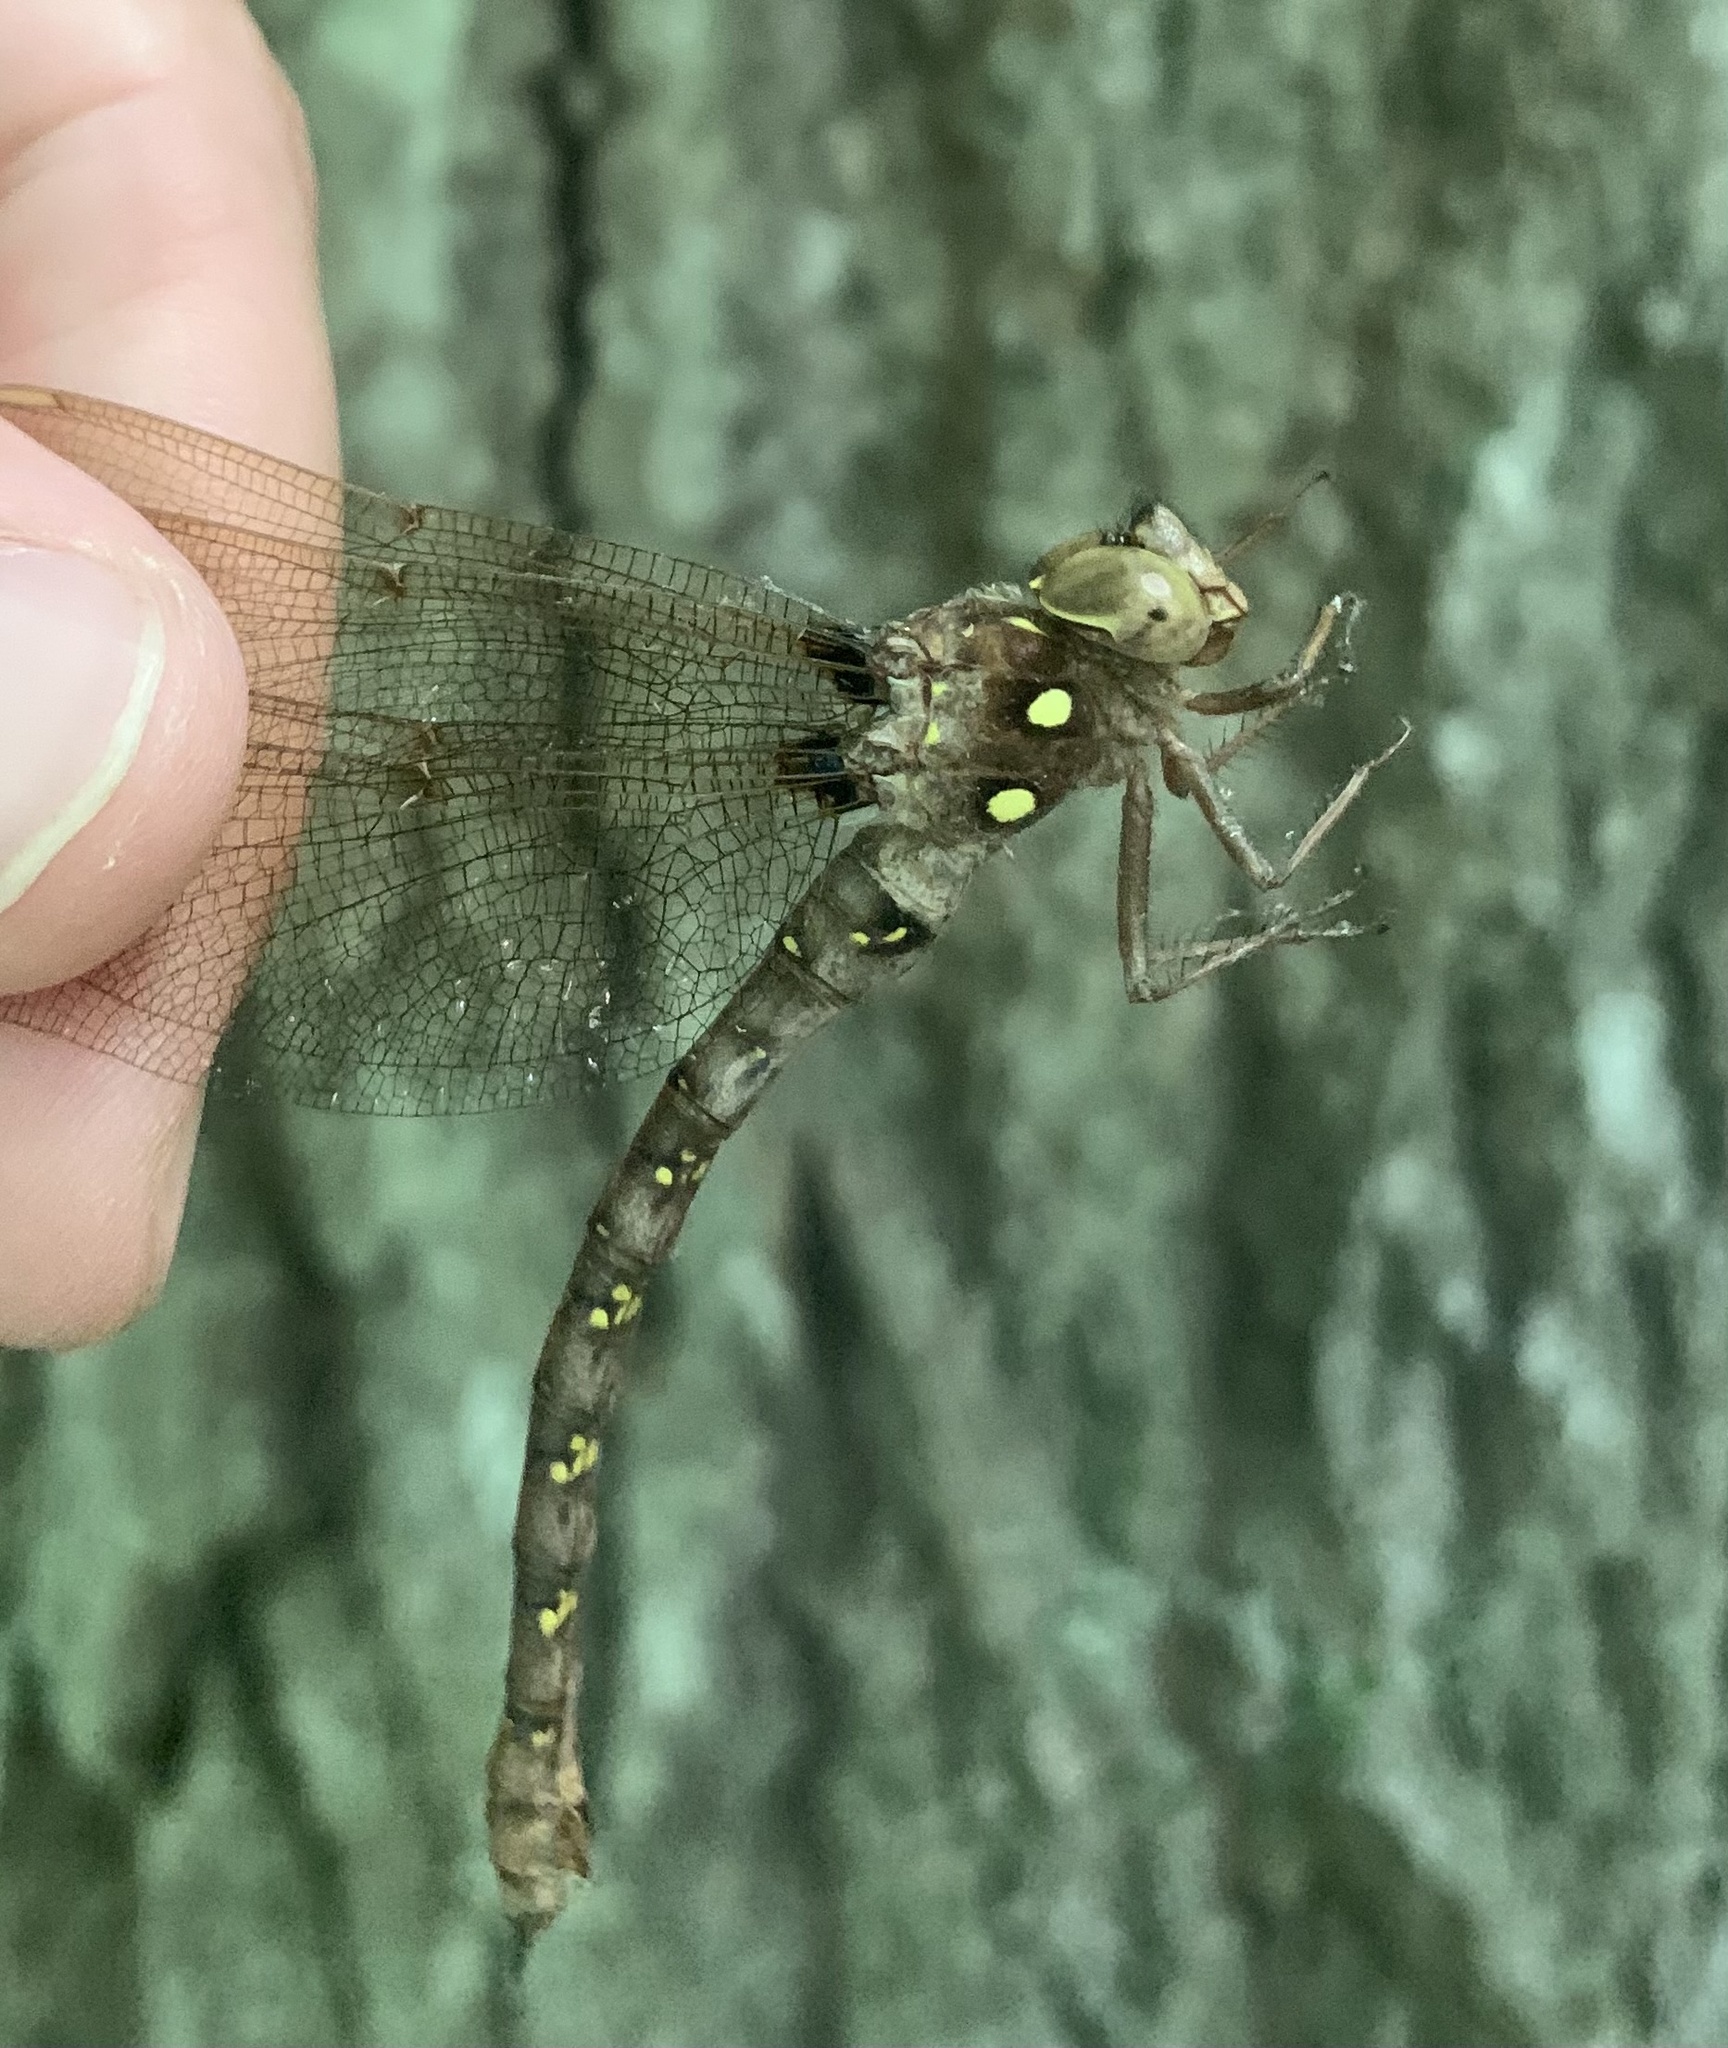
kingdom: Animalia
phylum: Arthropoda
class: Insecta
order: Odonata
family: Aeshnidae
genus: Boyeria
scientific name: Boyeria vinosa
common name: Fawn darner
